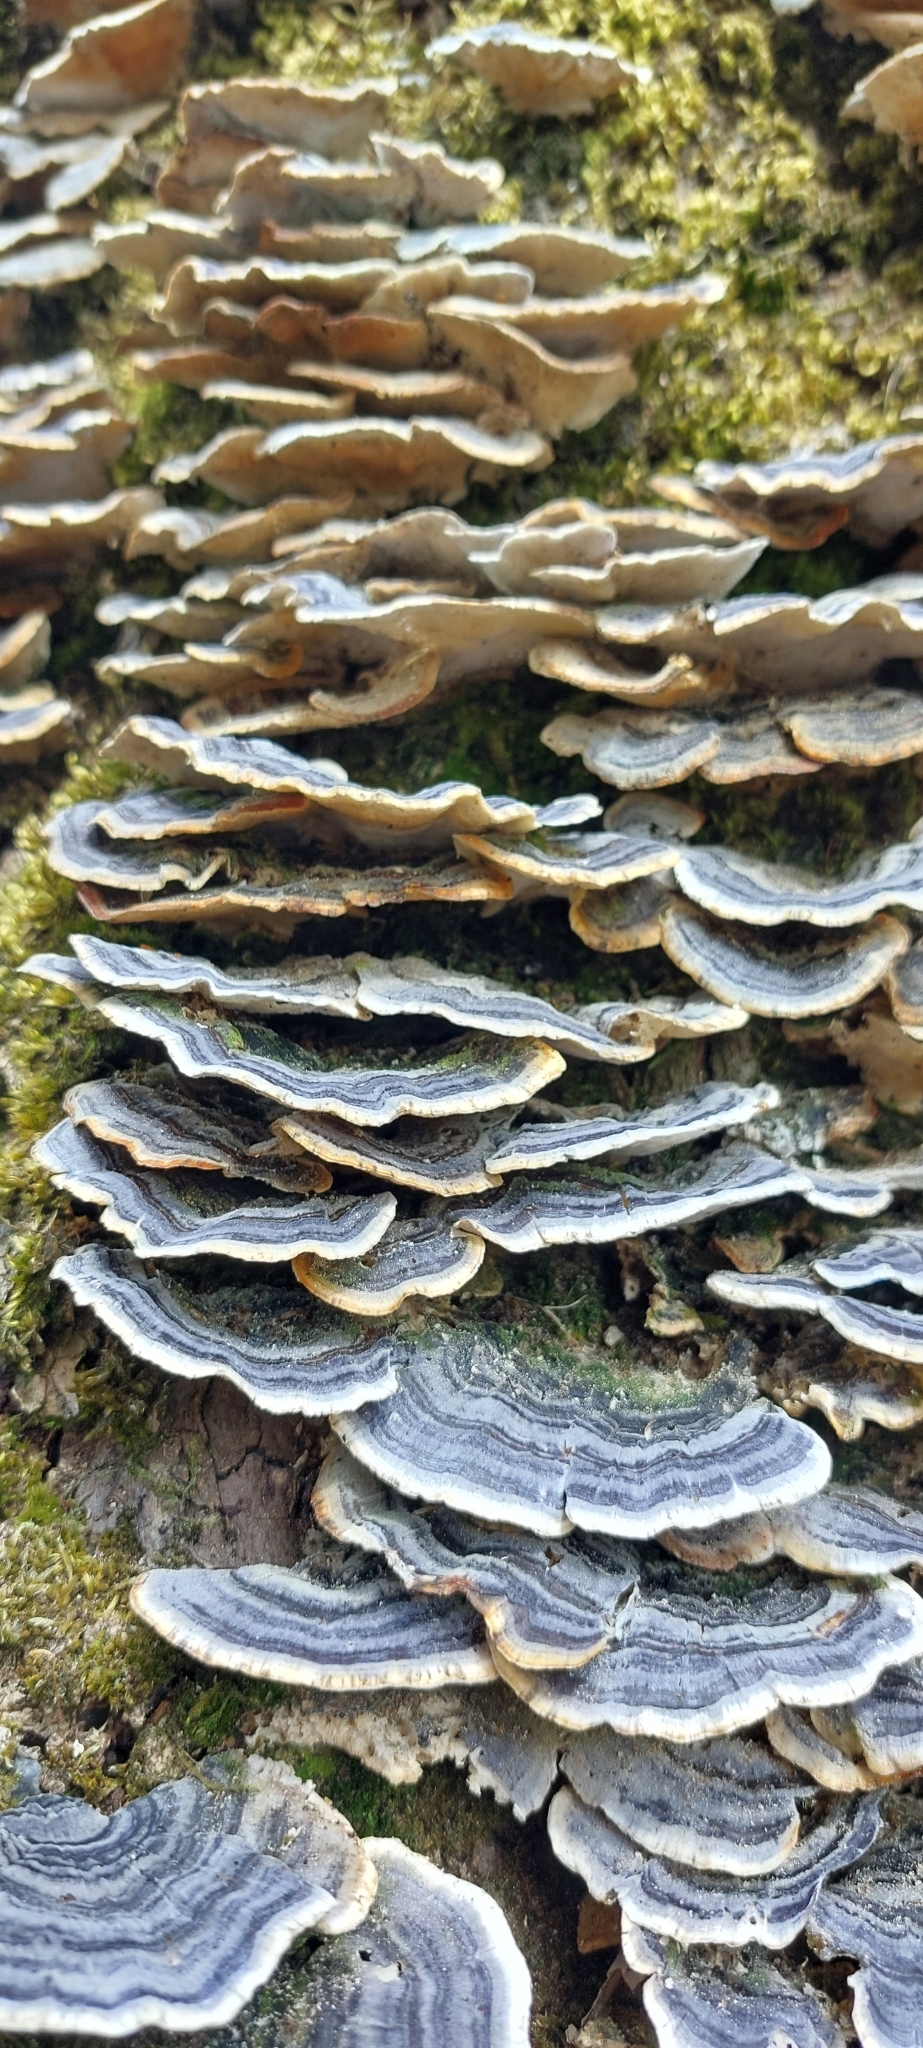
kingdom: Fungi
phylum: Basidiomycota
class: Agaricomycetes
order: Polyporales
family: Polyporaceae
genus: Trametes
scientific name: Trametes versicolor
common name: Turkeytail
